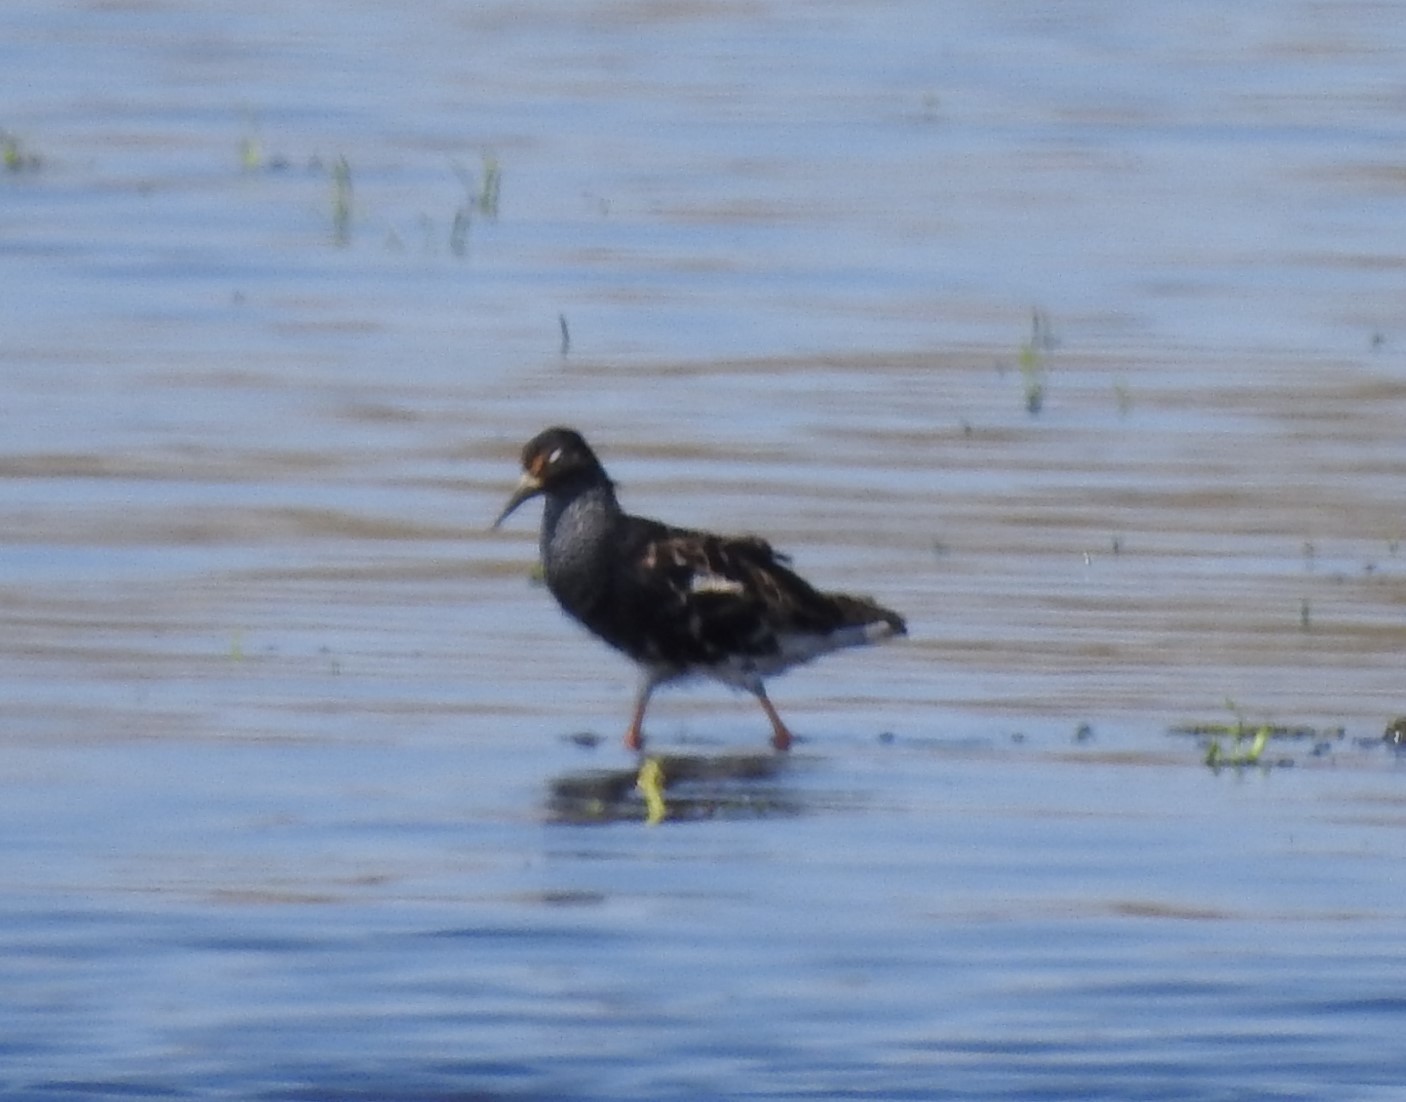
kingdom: Animalia
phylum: Chordata
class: Aves
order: Charadriiformes
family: Scolopacidae
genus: Calidris
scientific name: Calidris pugnax
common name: Ruff
